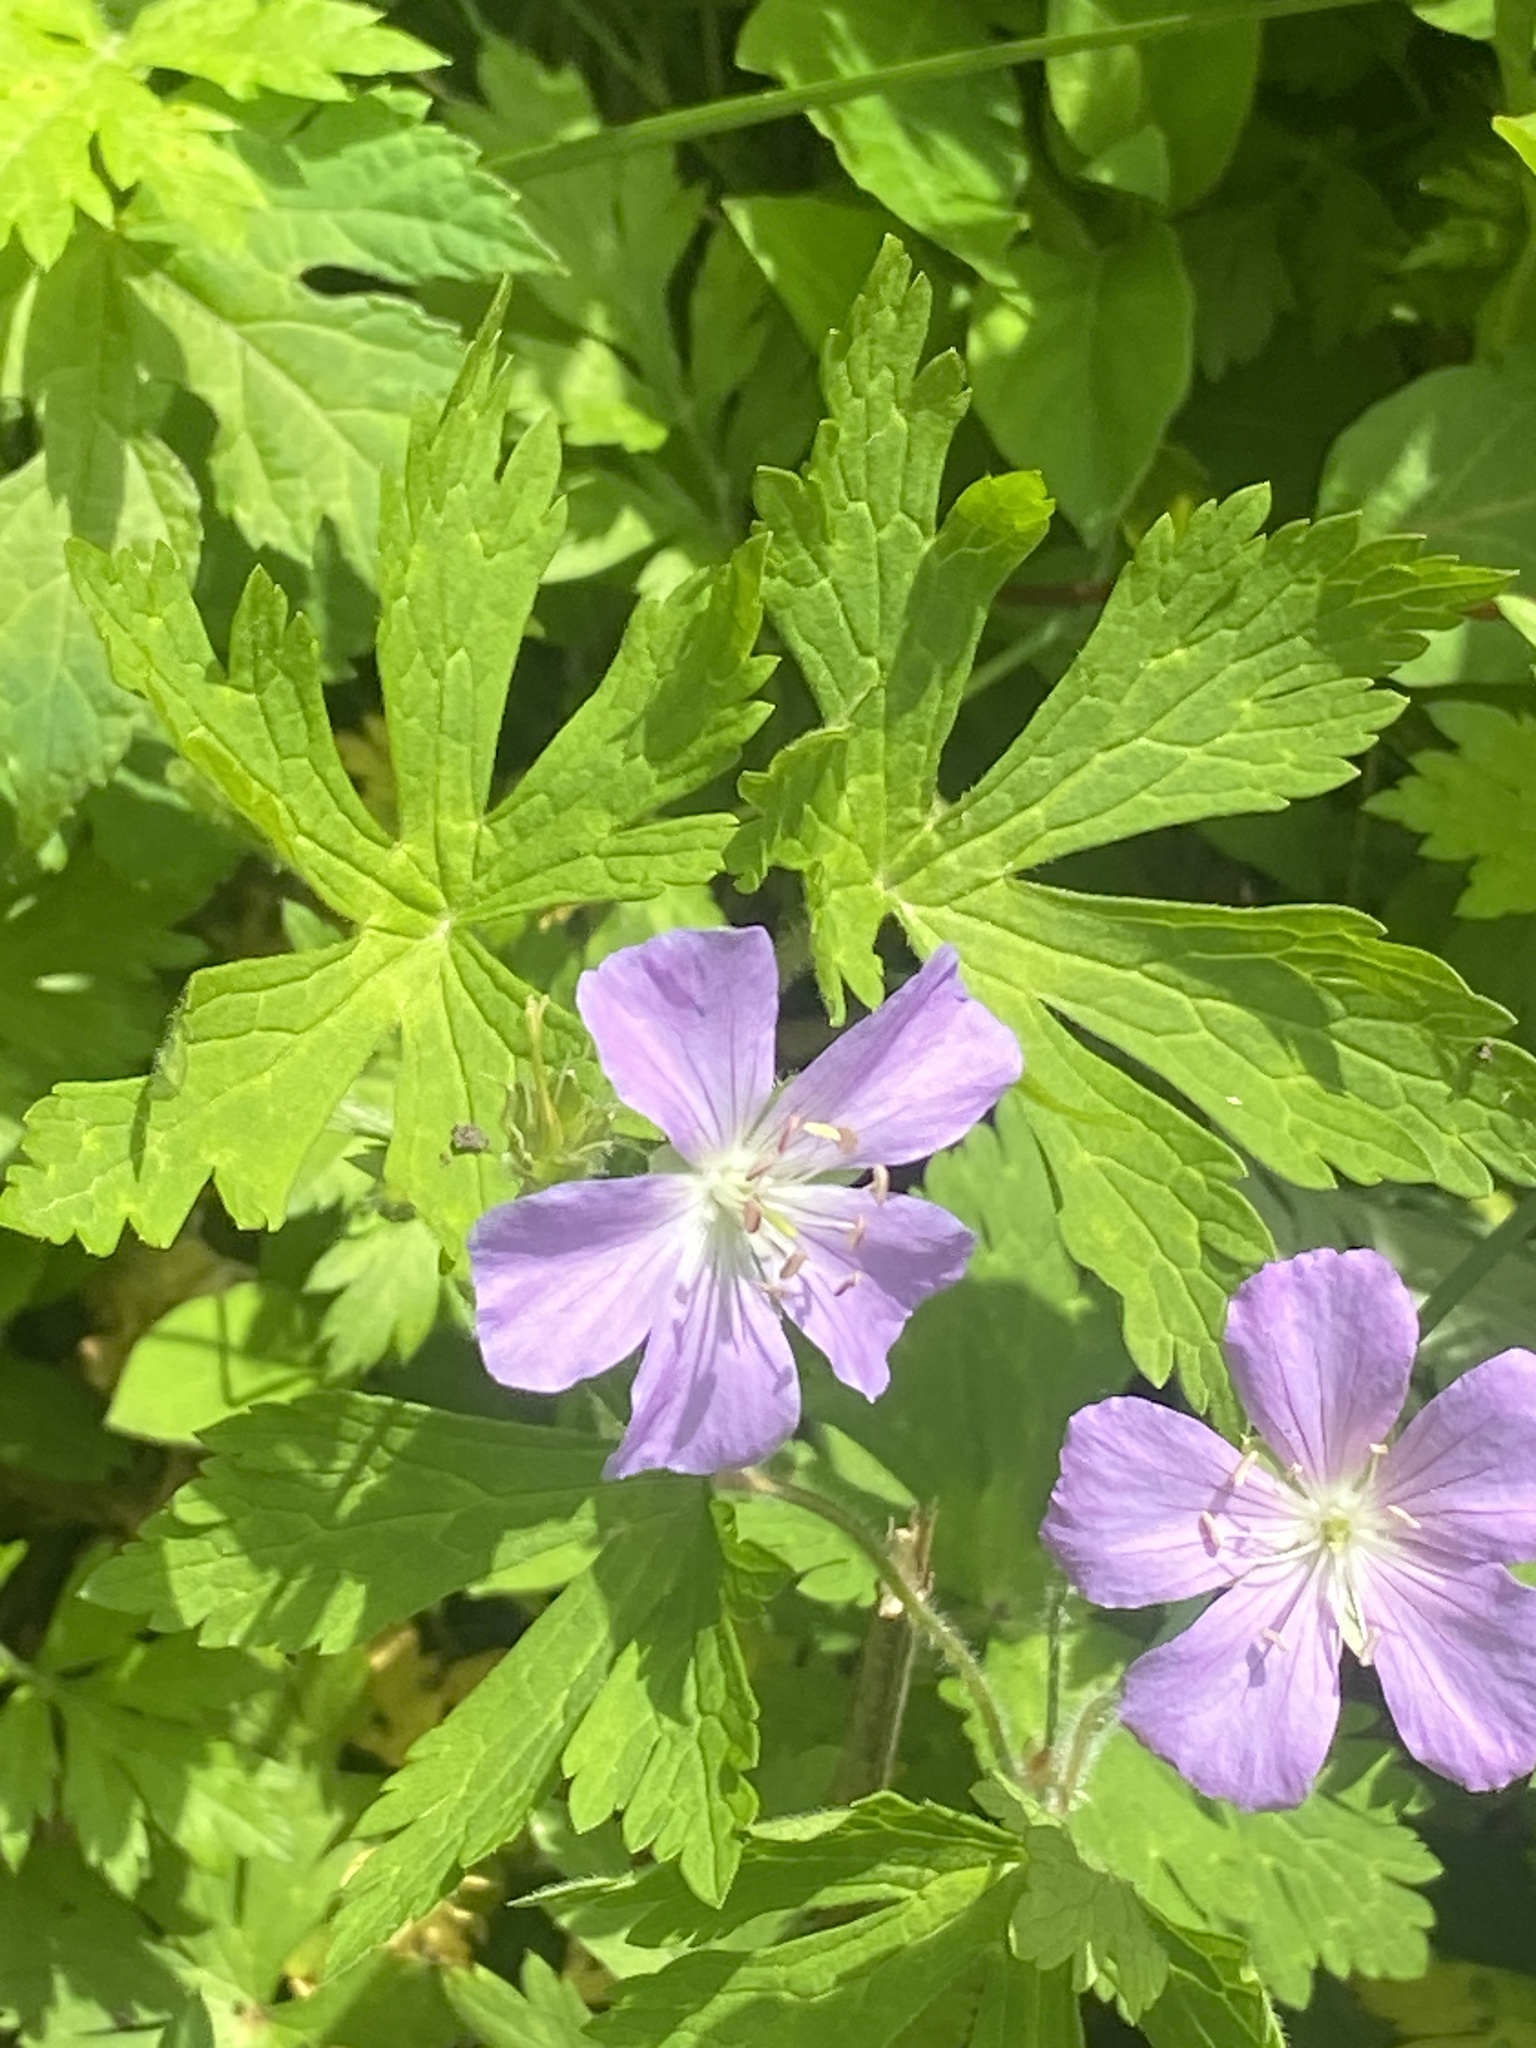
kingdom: Plantae
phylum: Tracheophyta
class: Magnoliopsida
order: Geraniales
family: Geraniaceae
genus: Geranium
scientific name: Geranium maculatum
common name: Spotted geranium
